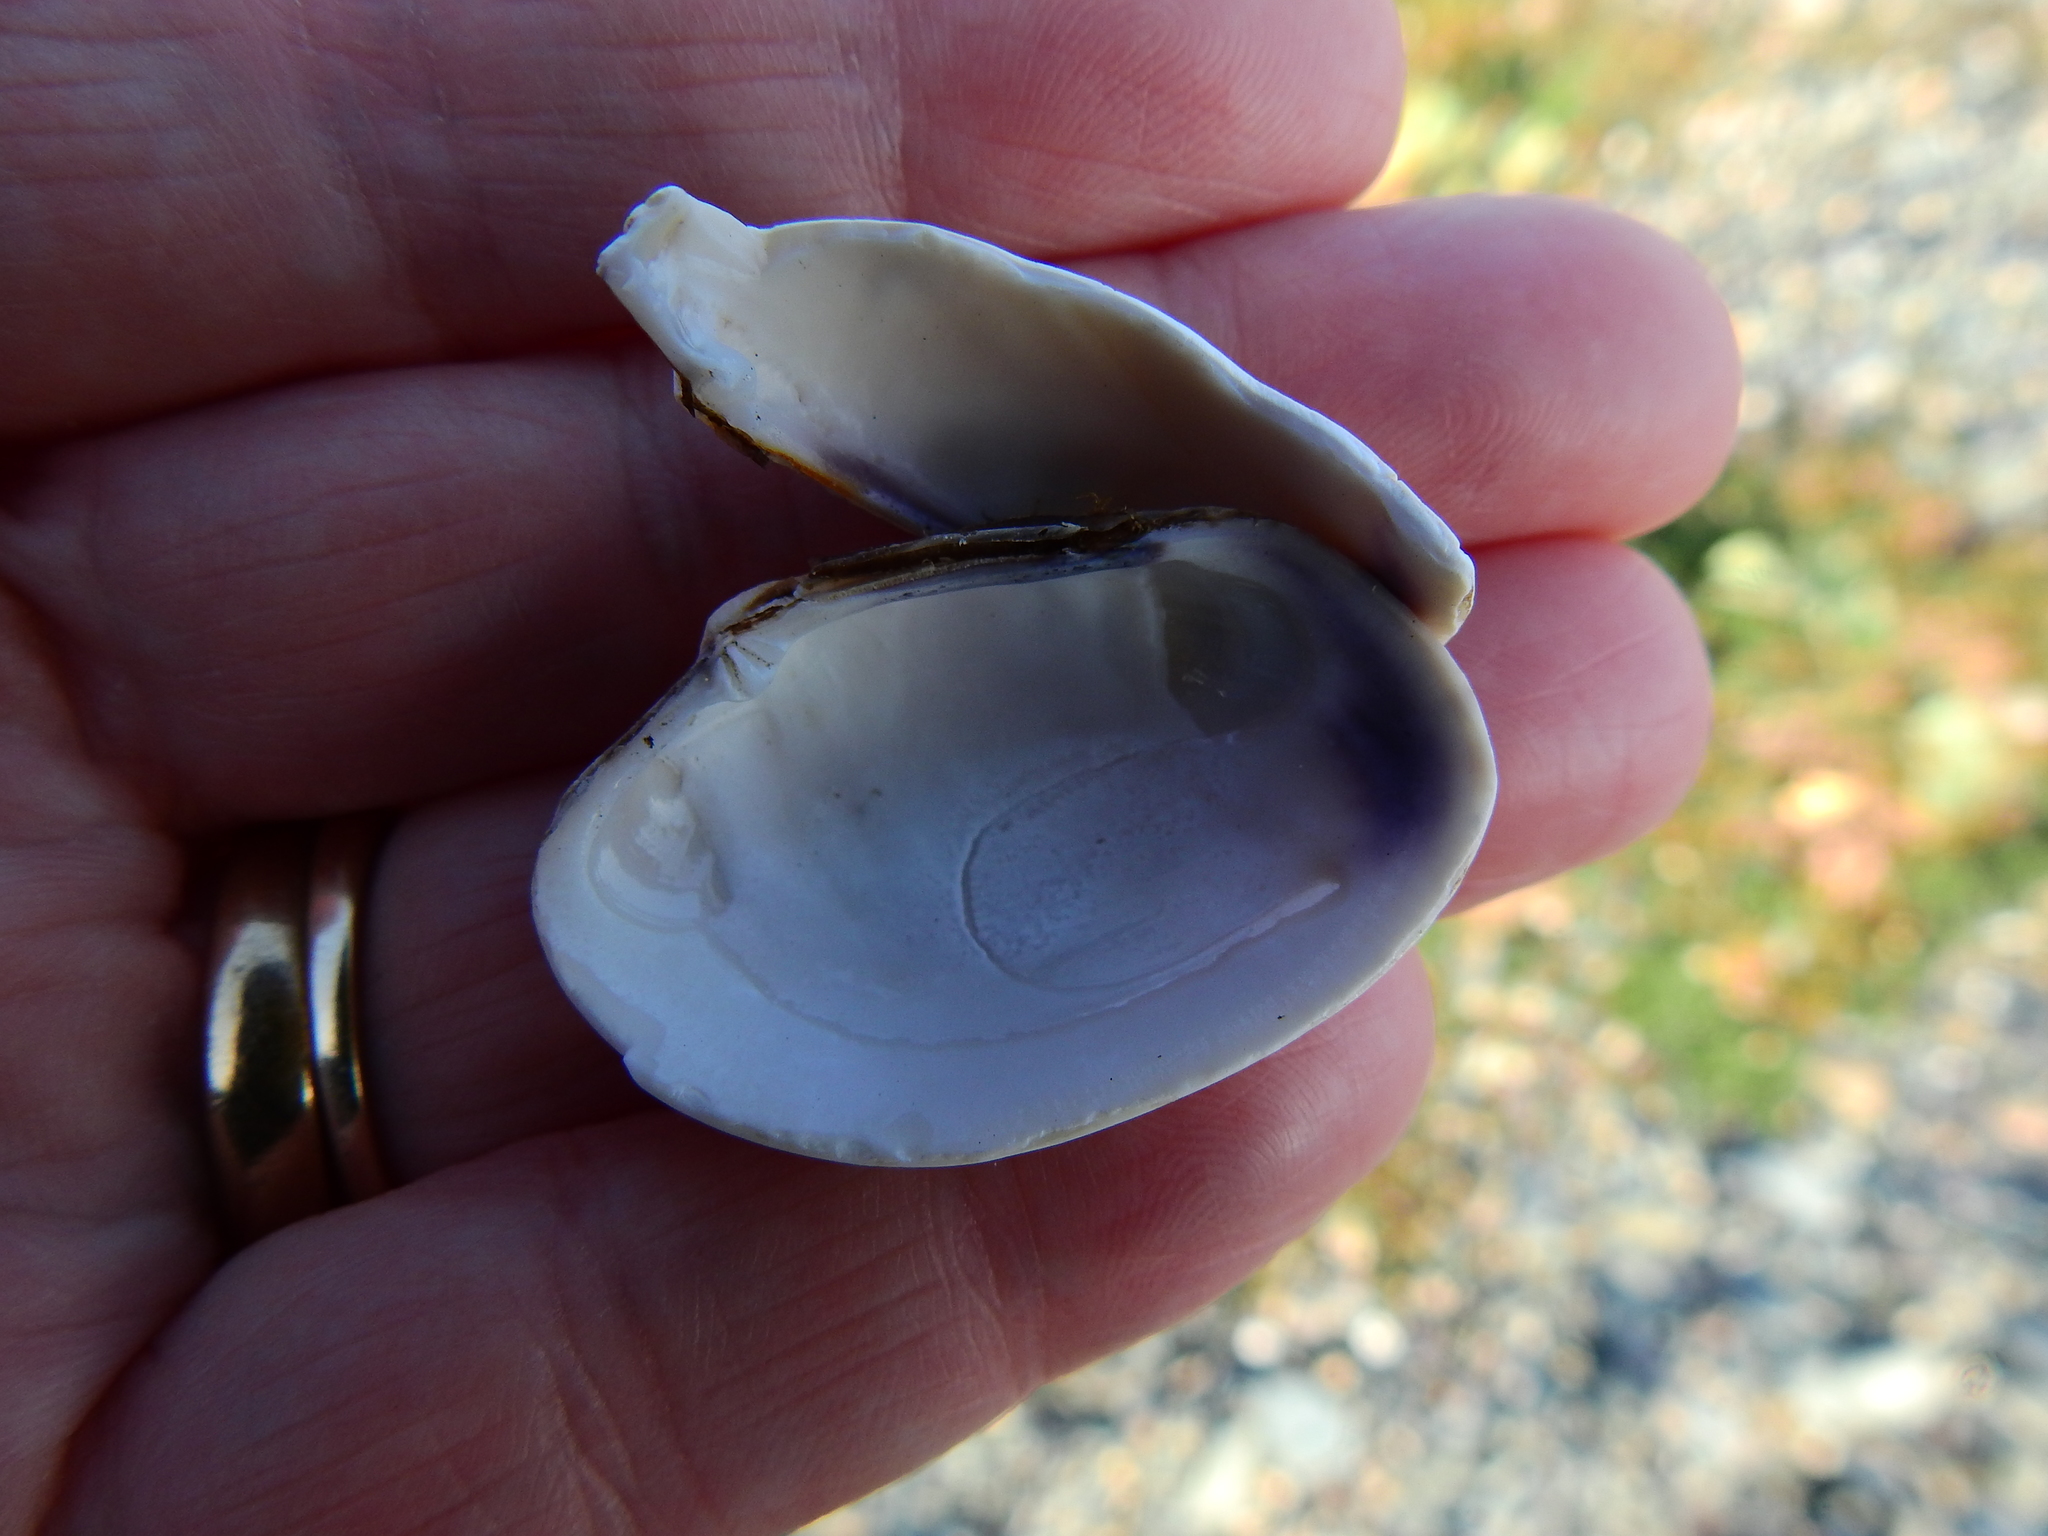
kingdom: Animalia
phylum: Mollusca
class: Bivalvia
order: Venerida
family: Veneridae
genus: Venerupis
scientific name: Venerupis corrugata
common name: Pullet carpet shell
